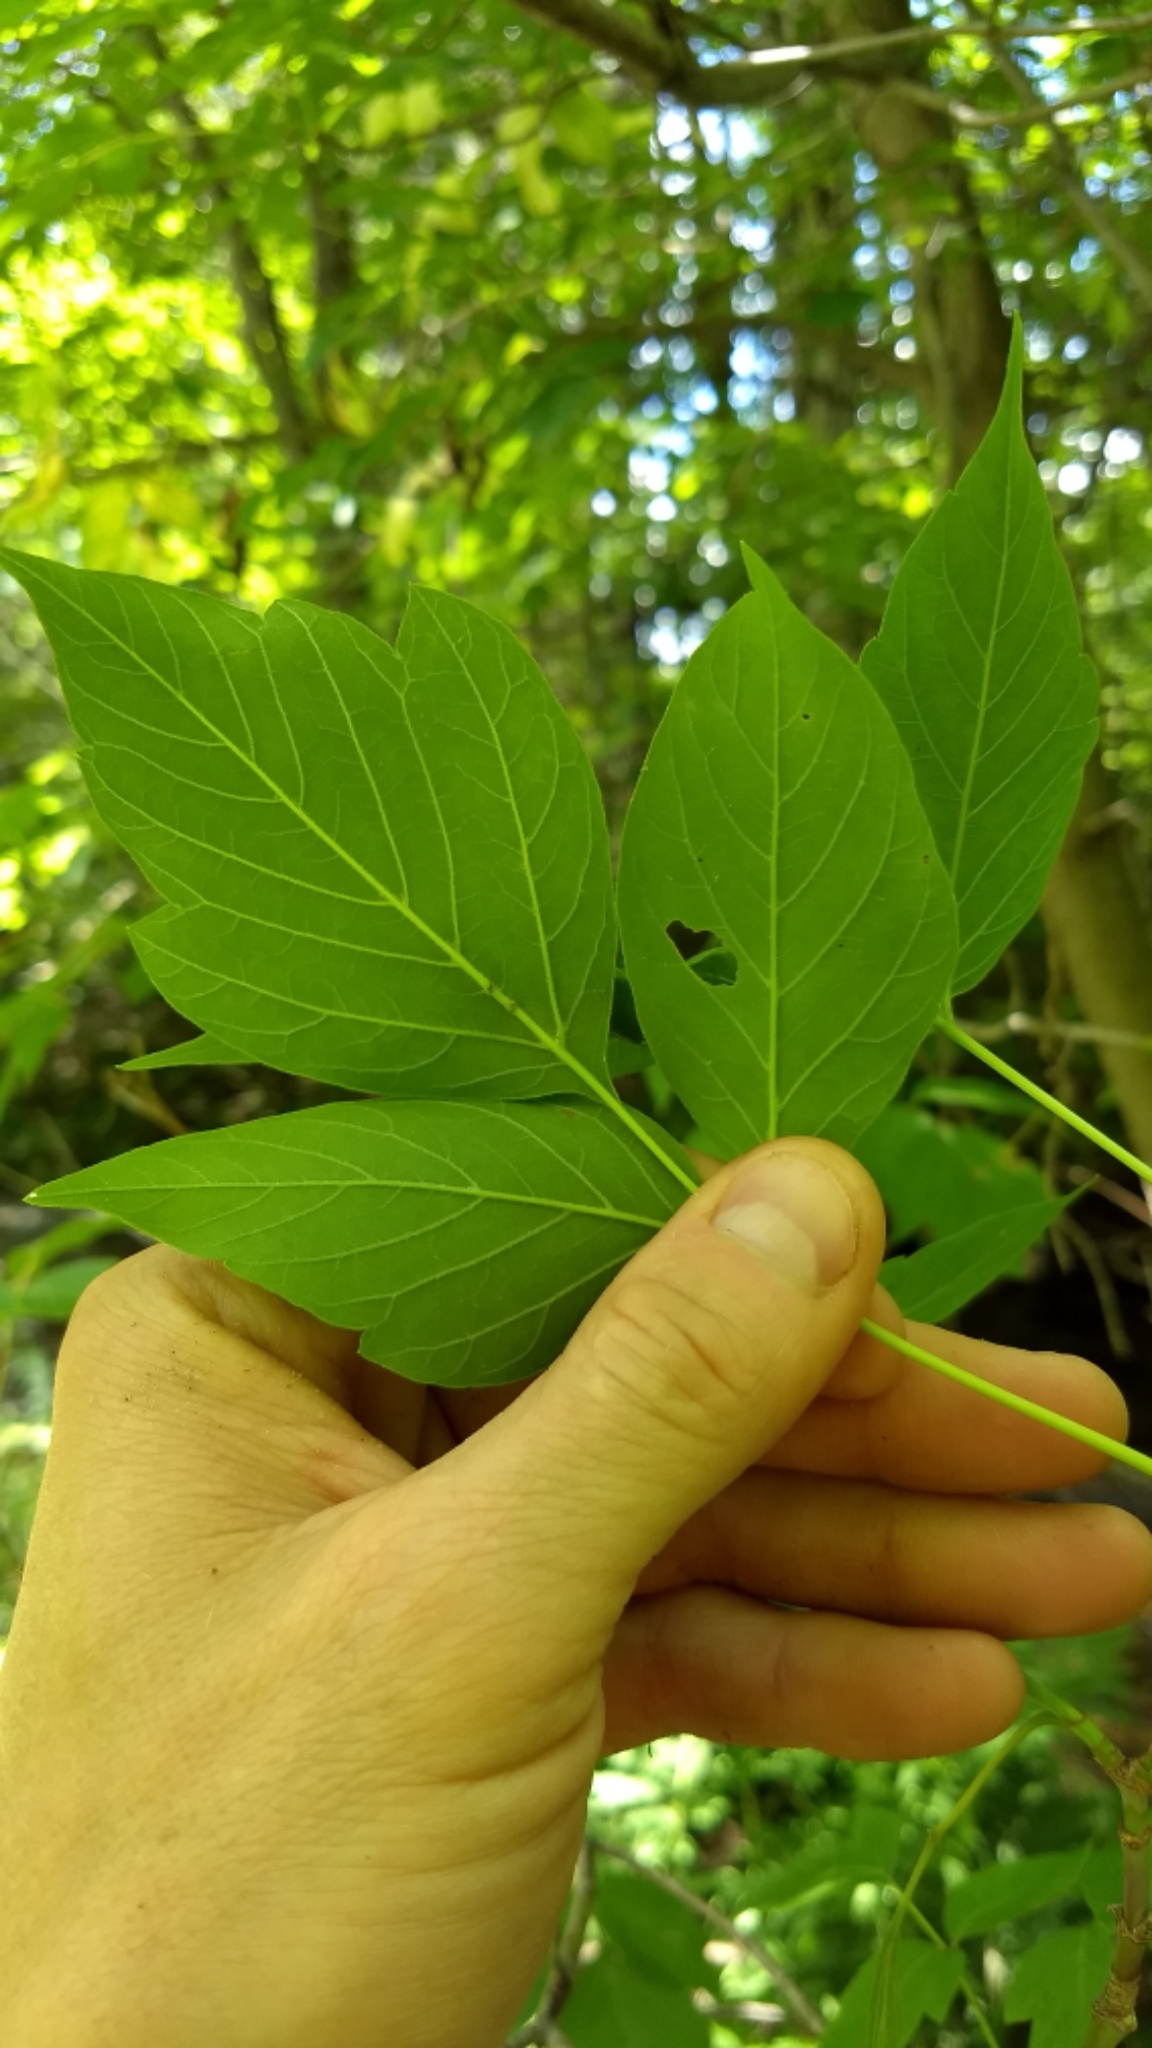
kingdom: Plantae
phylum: Tracheophyta
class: Magnoliopsida
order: Sapindales
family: Sapindaceae
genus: Acer
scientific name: Acer negundo
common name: Ashleaf maple
